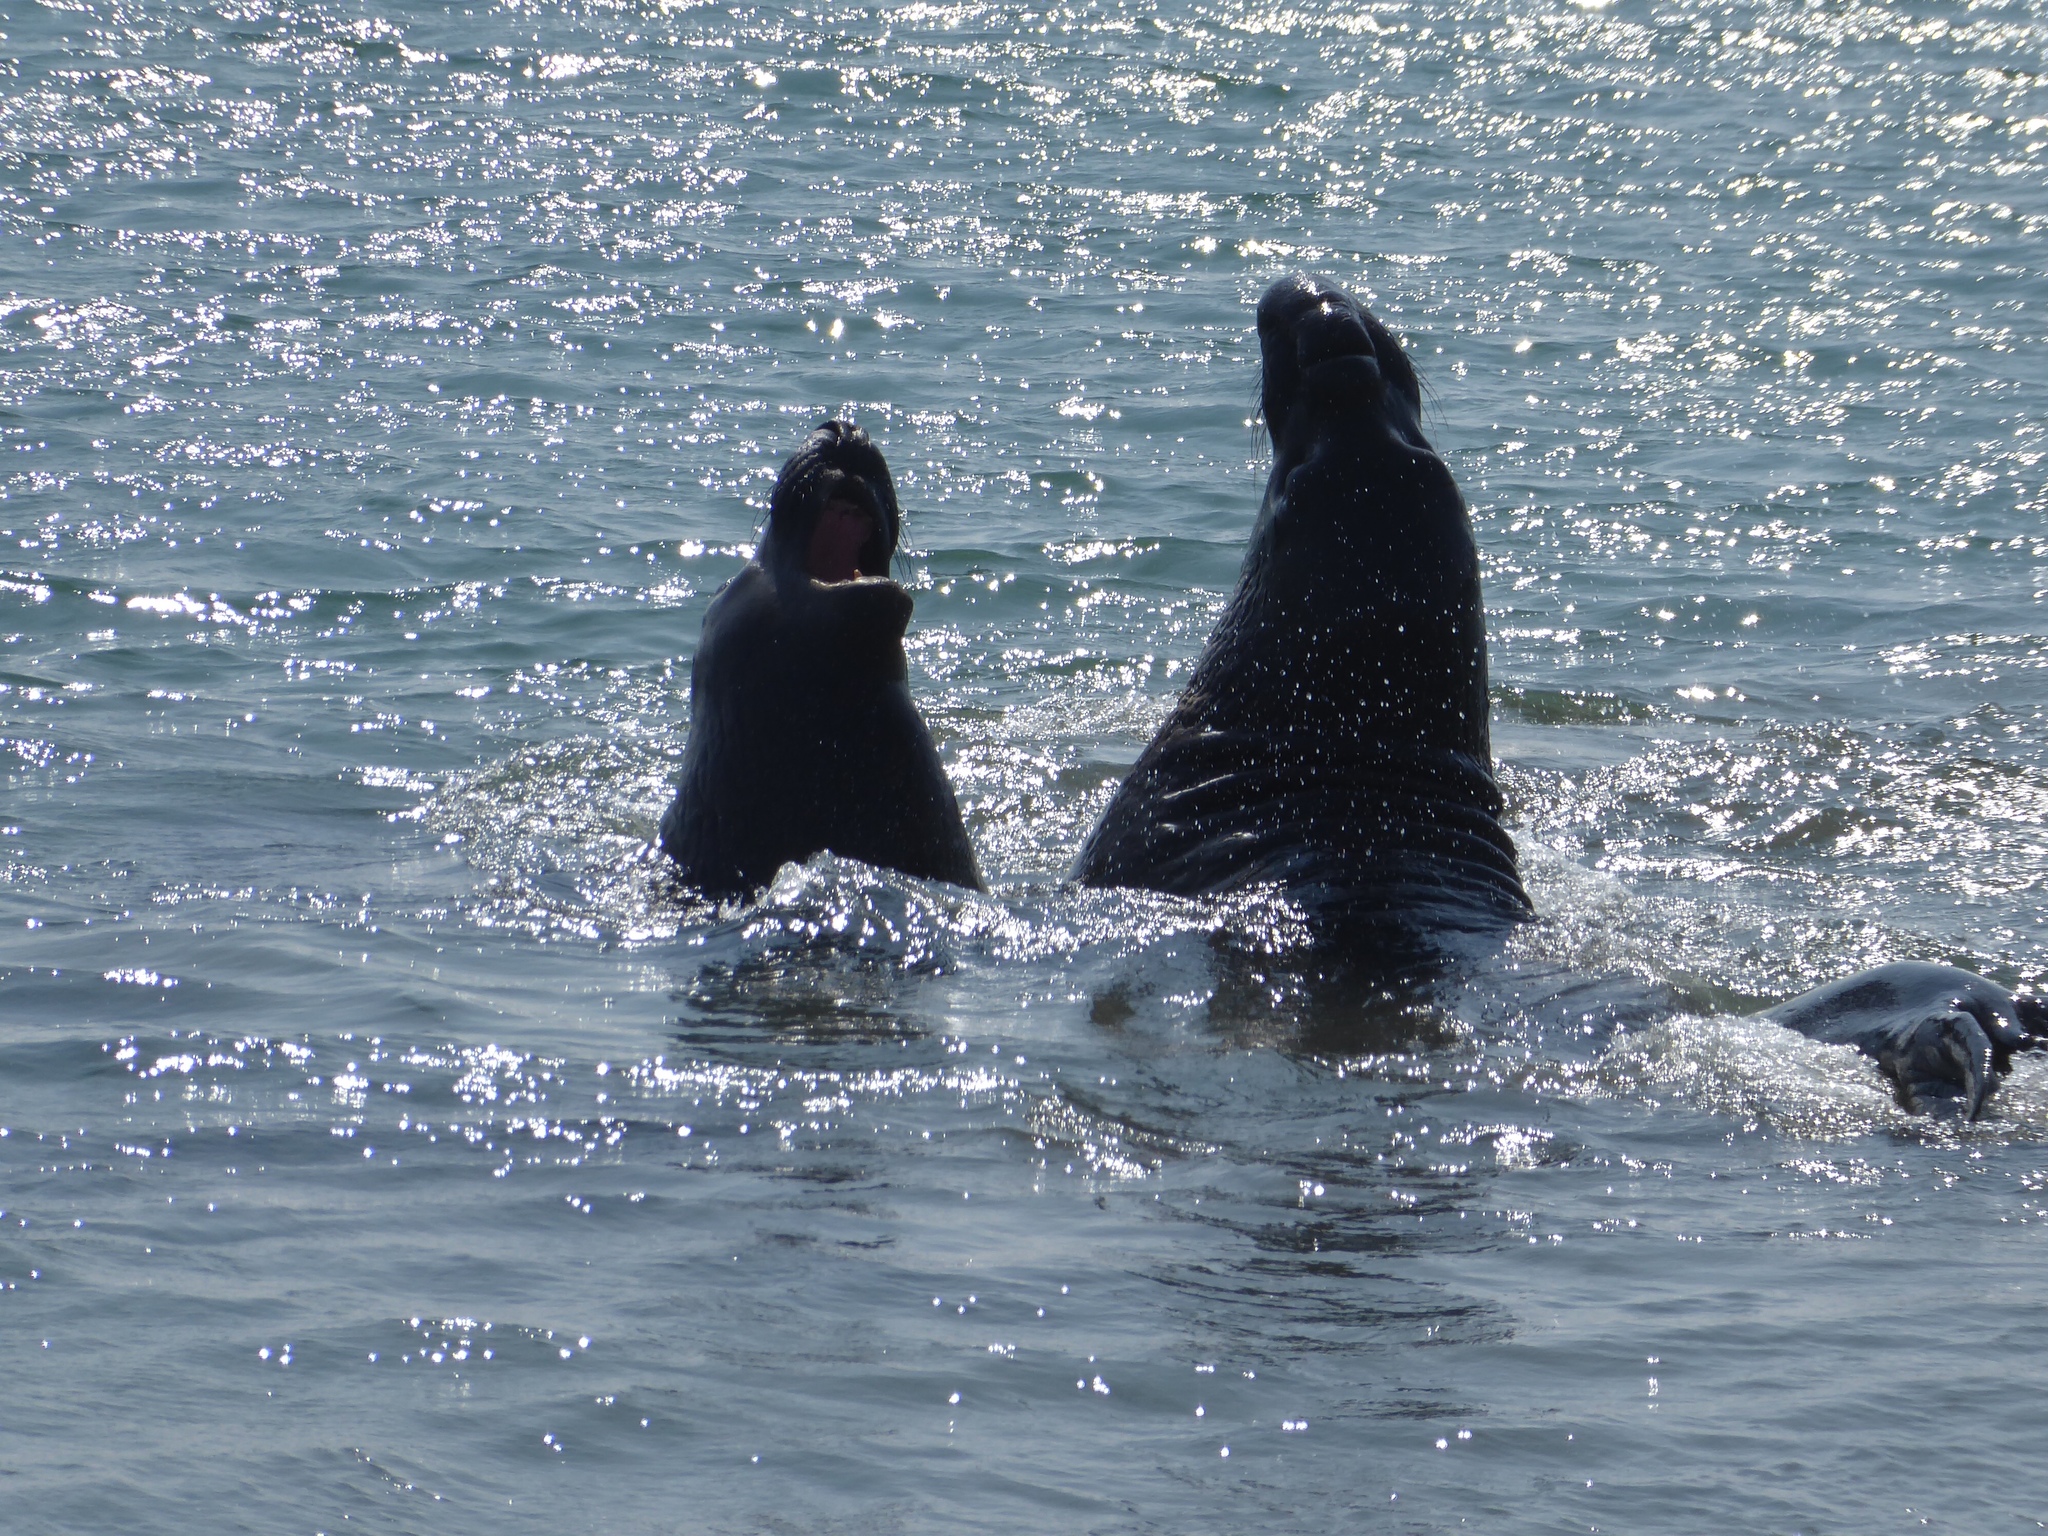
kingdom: Animalia
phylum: Chordata
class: Mammalia
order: Carnivora
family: Phocidae
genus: Mirounga
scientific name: Mirounga angustirostris
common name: Northern elephant seal
